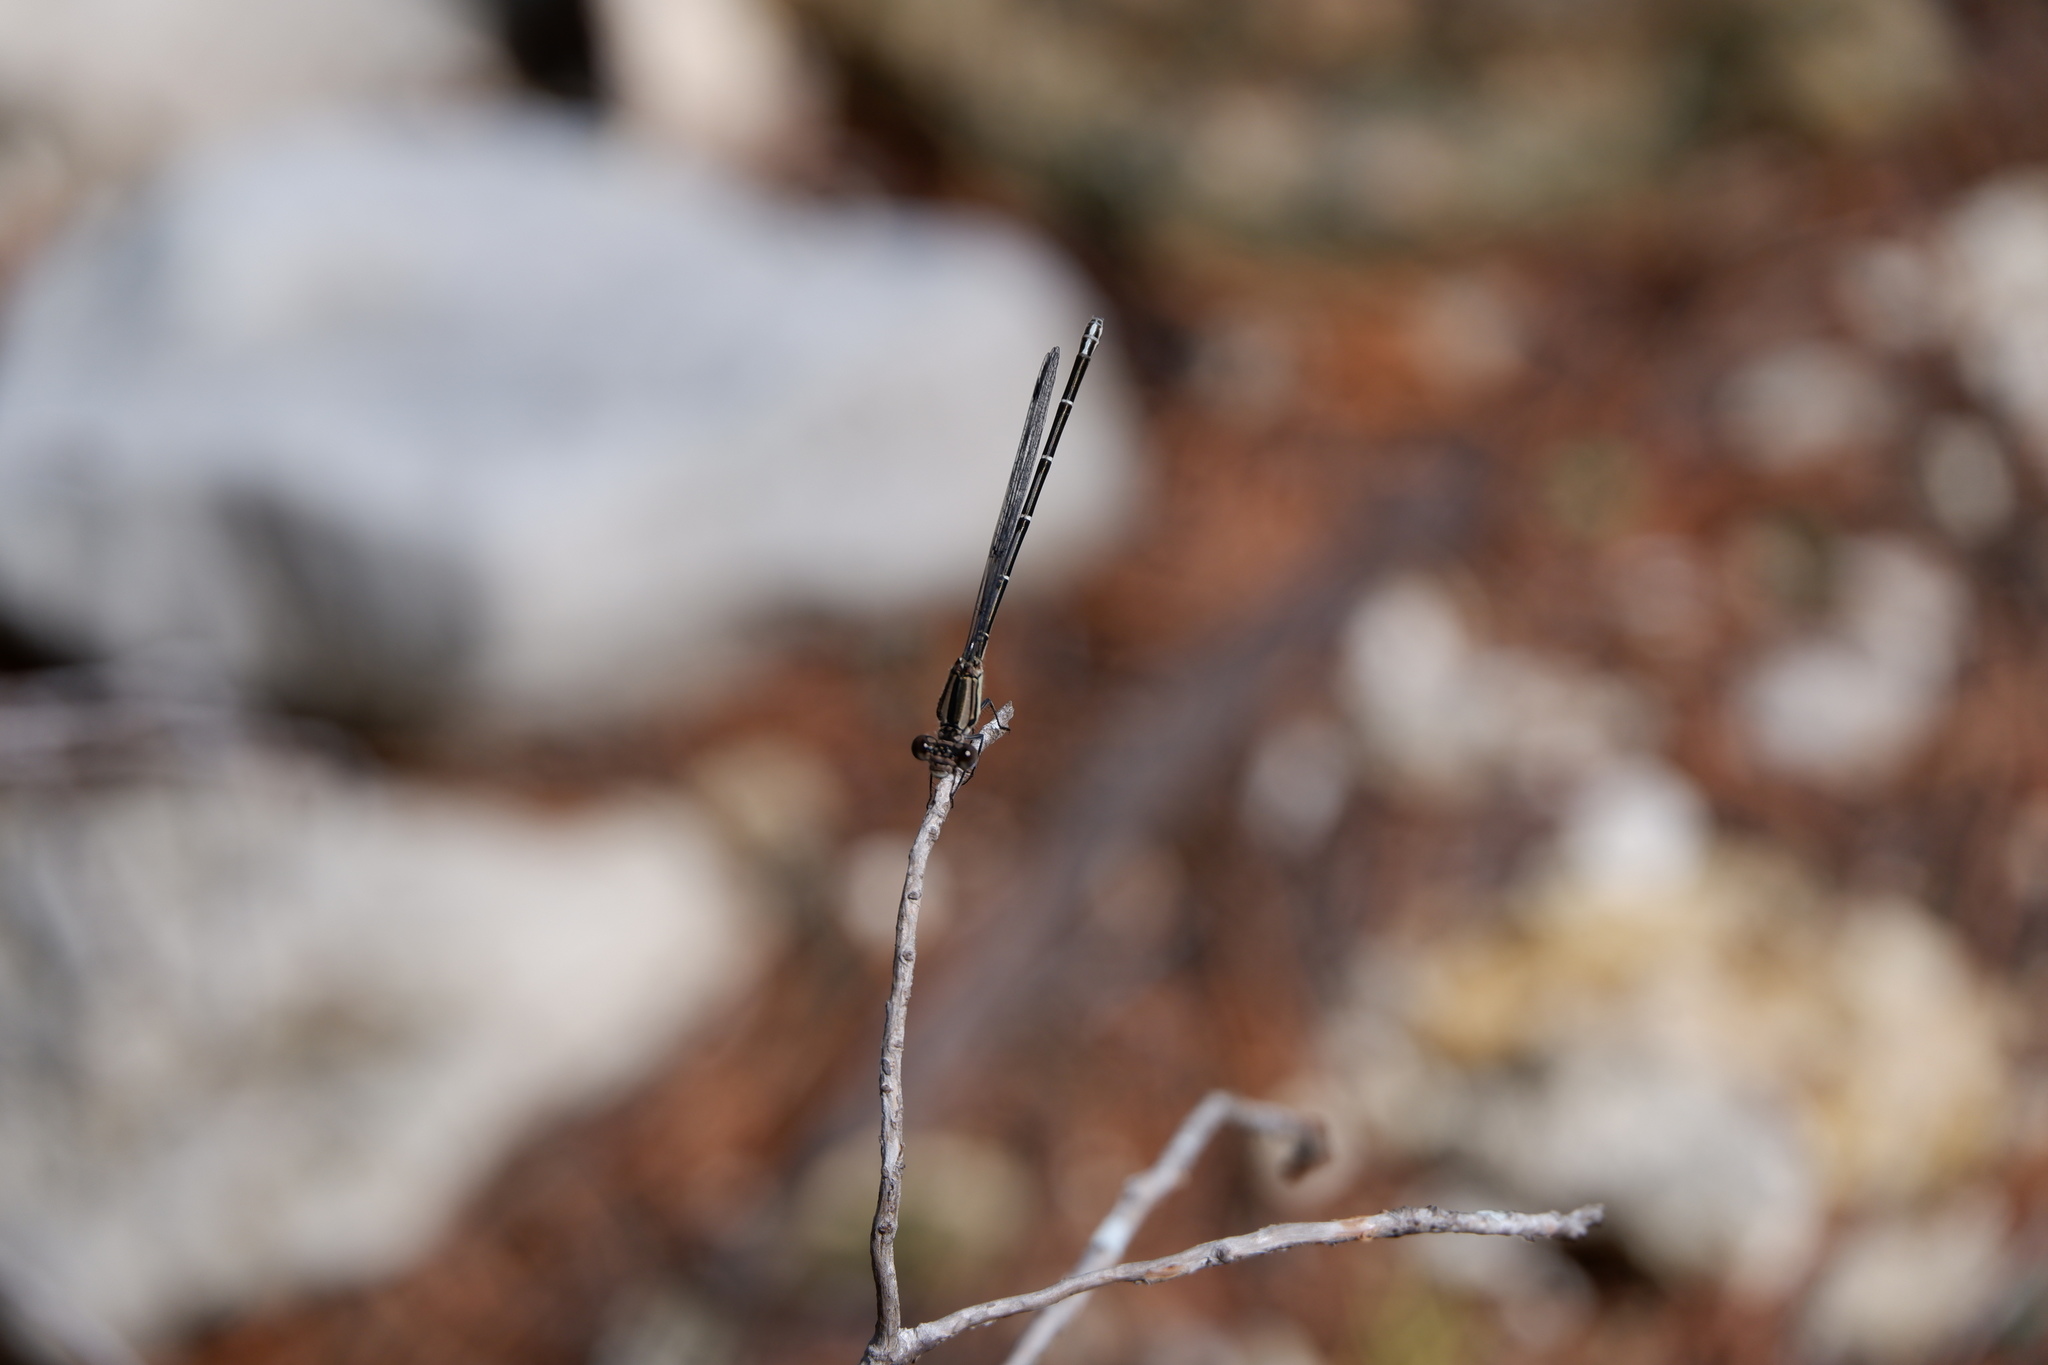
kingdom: Animalia
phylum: Arthropoda
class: Insecta
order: Odonata
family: Coenagrionidae
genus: Argia
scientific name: Argia translata
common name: Dusky dancer
